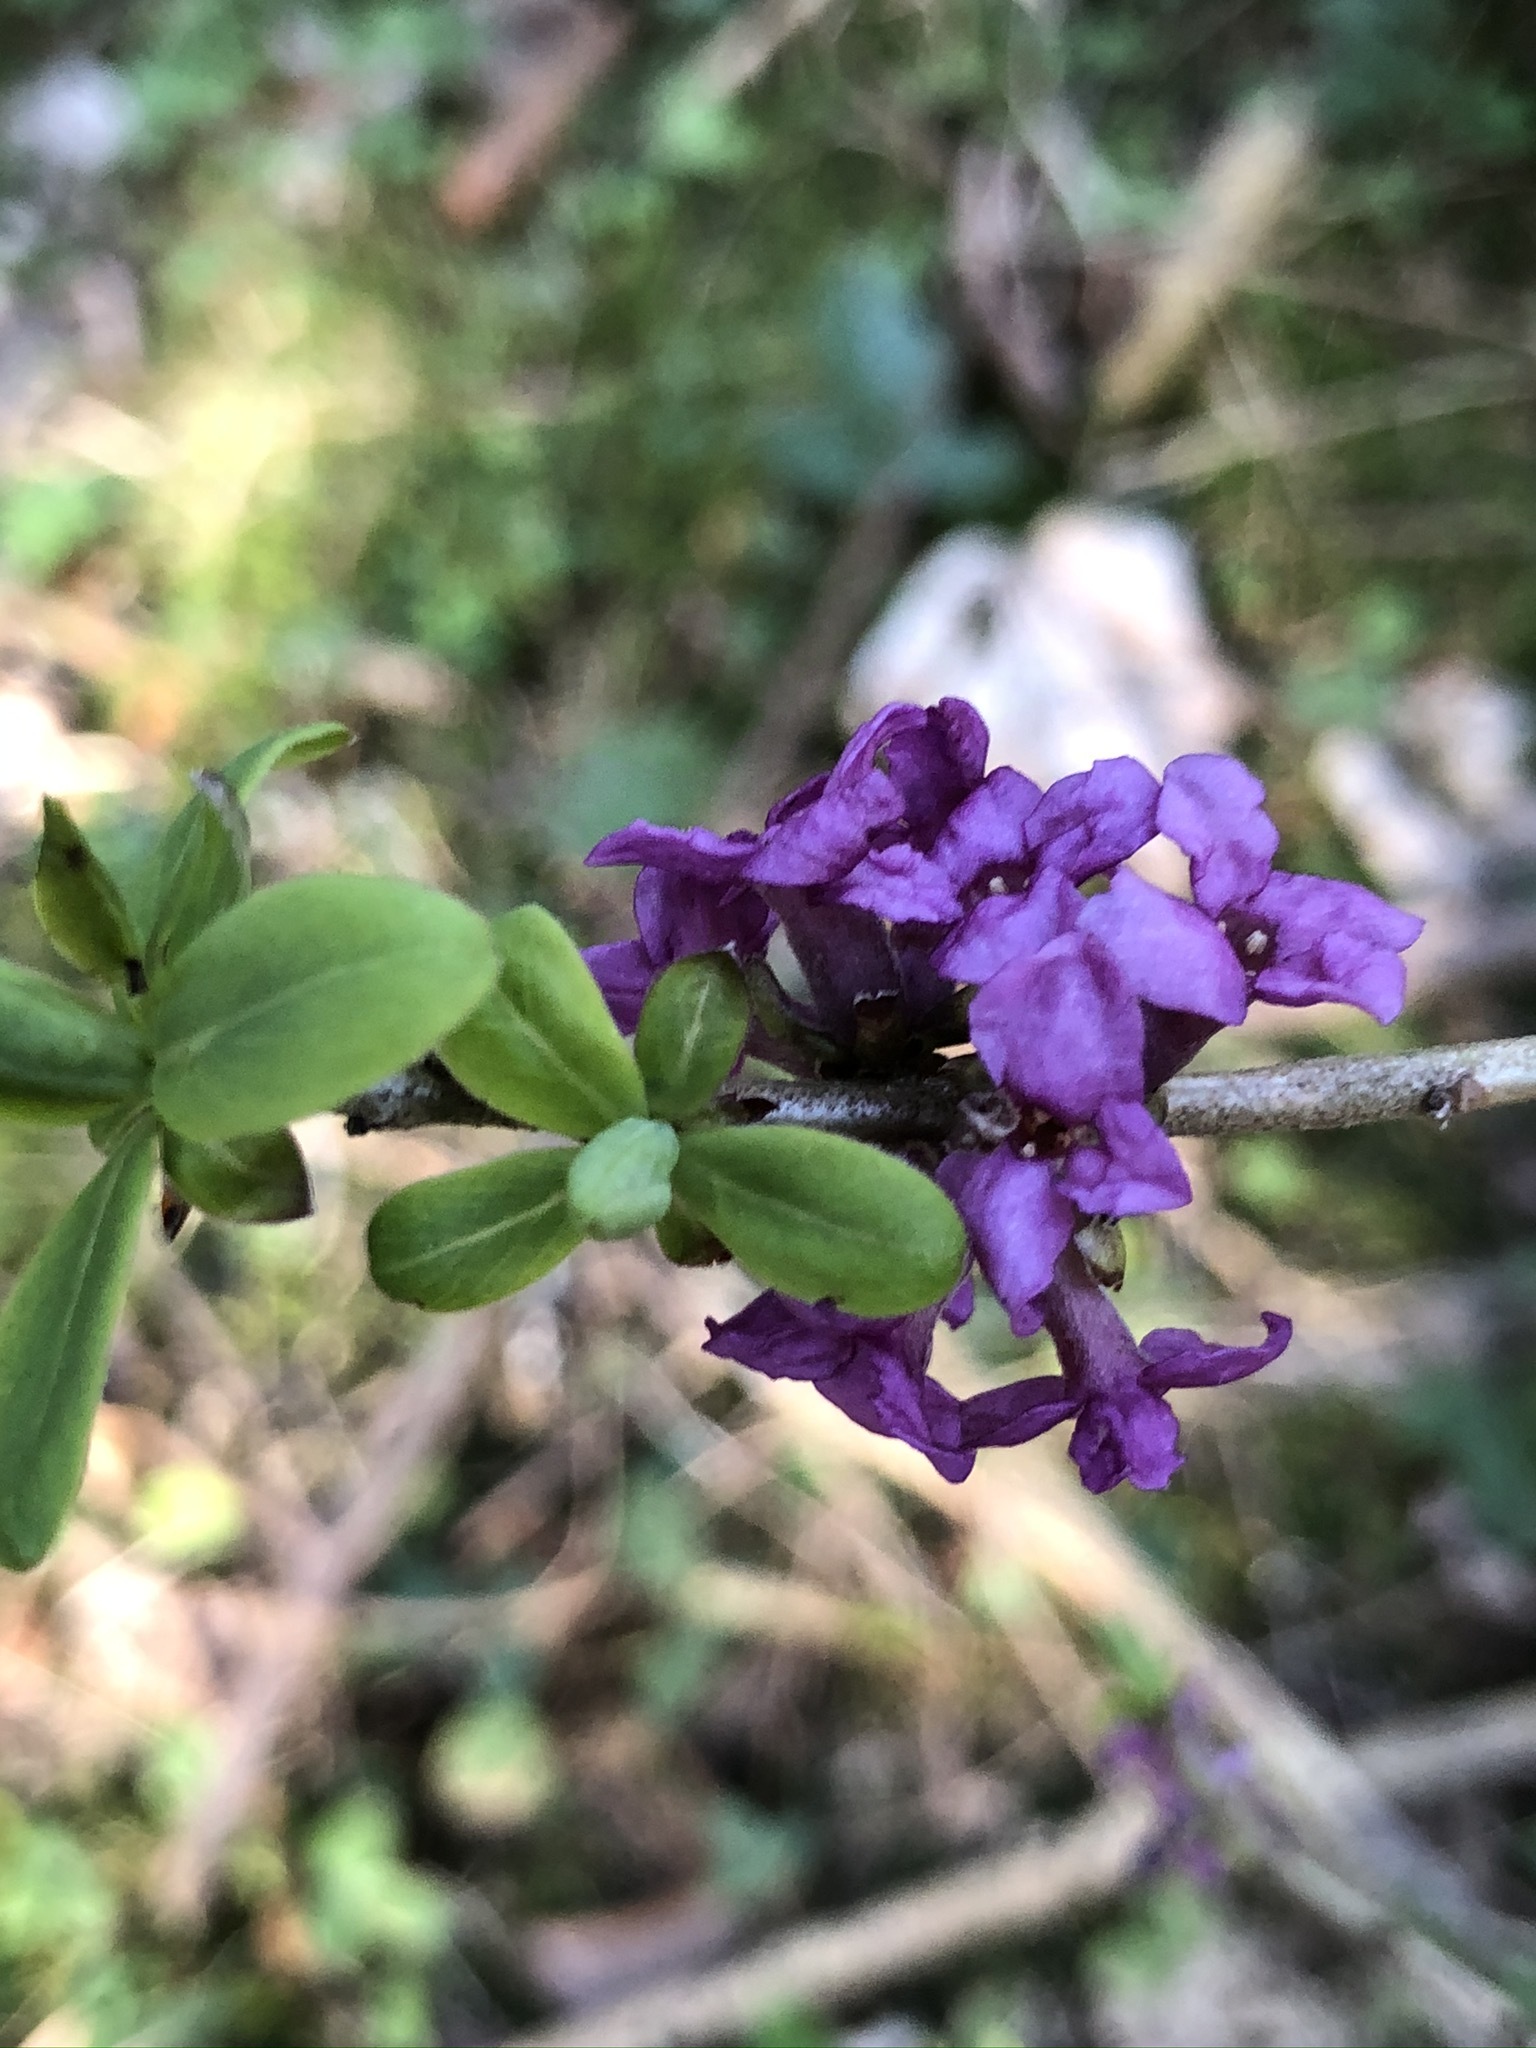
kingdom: Plantae
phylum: Tracheophyta
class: Magnoliopsida
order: Malvales
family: Thymelaeaceae
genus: Daphne
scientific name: Daphne mezereum
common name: Mezereon
